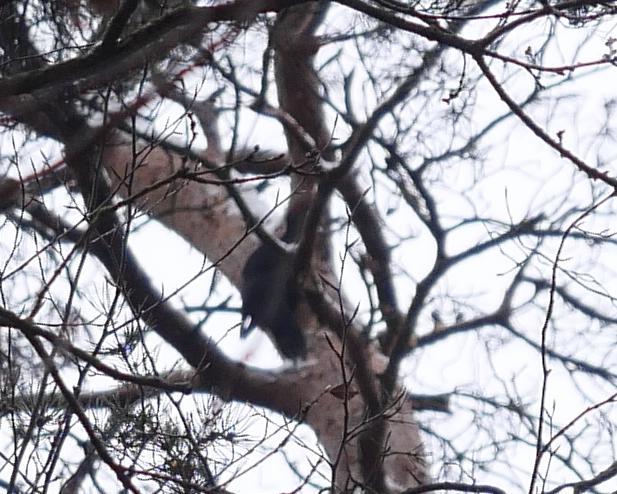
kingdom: Animalia
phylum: Chordata
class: Aves
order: Piciformes
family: Picidae
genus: Dryocopus
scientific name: Dryocopus martius
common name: Black woodpecker
